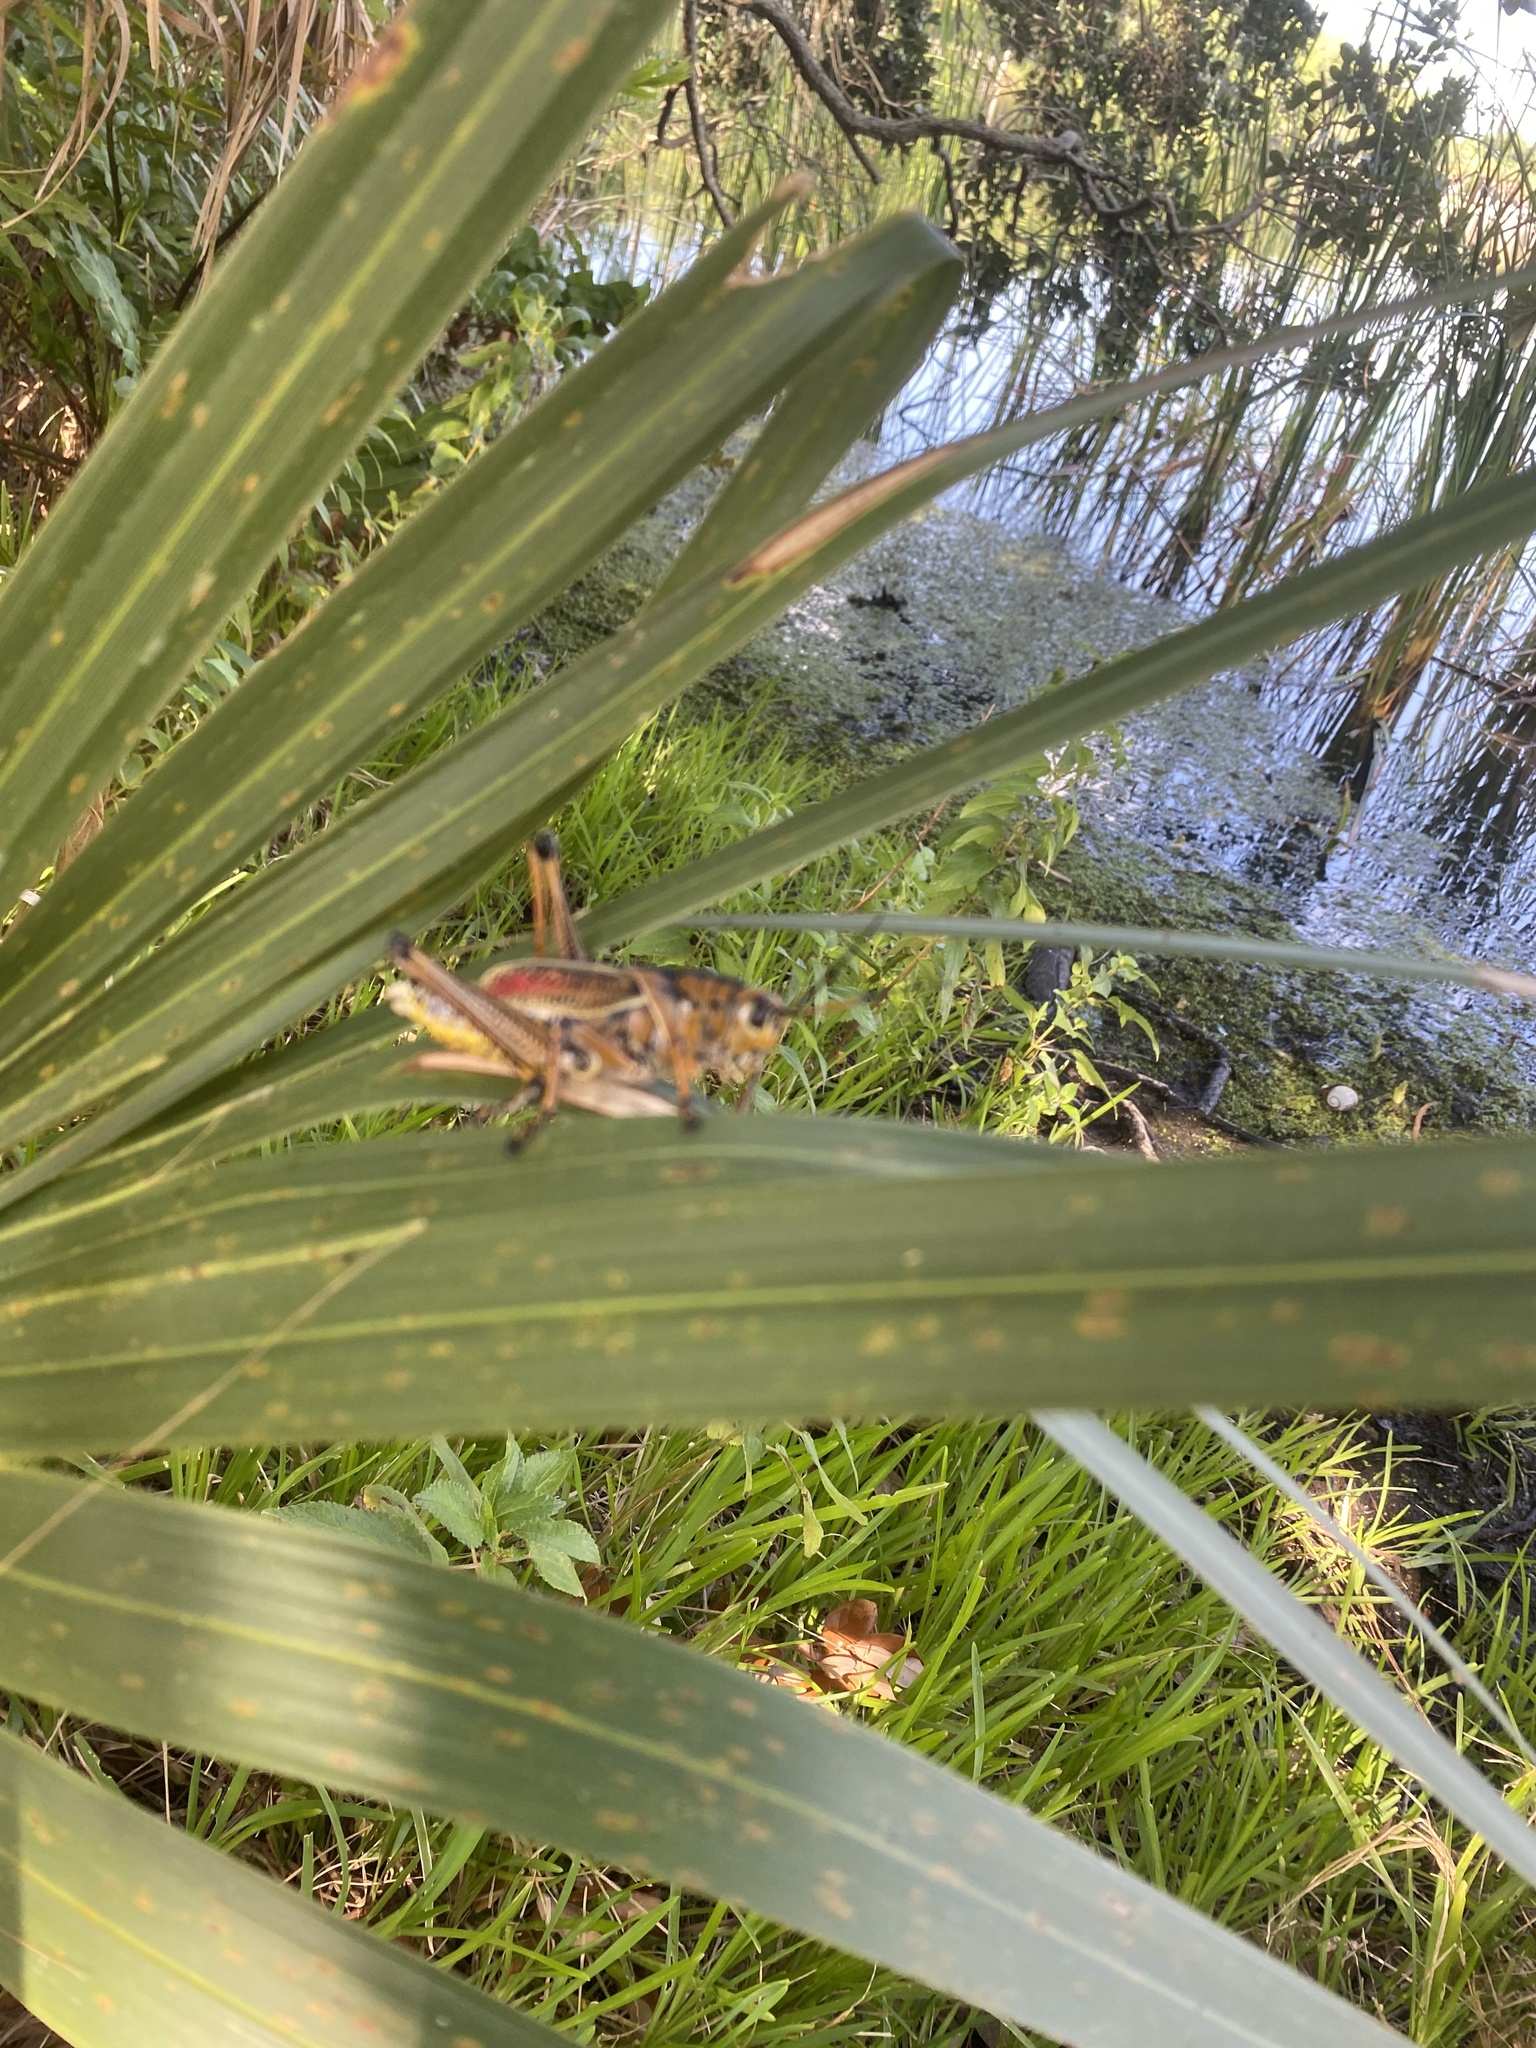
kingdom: Animalia
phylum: Arthropoda
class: Insecta
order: Orthoptera
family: Romaleidae
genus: Romalea
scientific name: Romalea microptera
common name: Eastern lubber grasshopper
